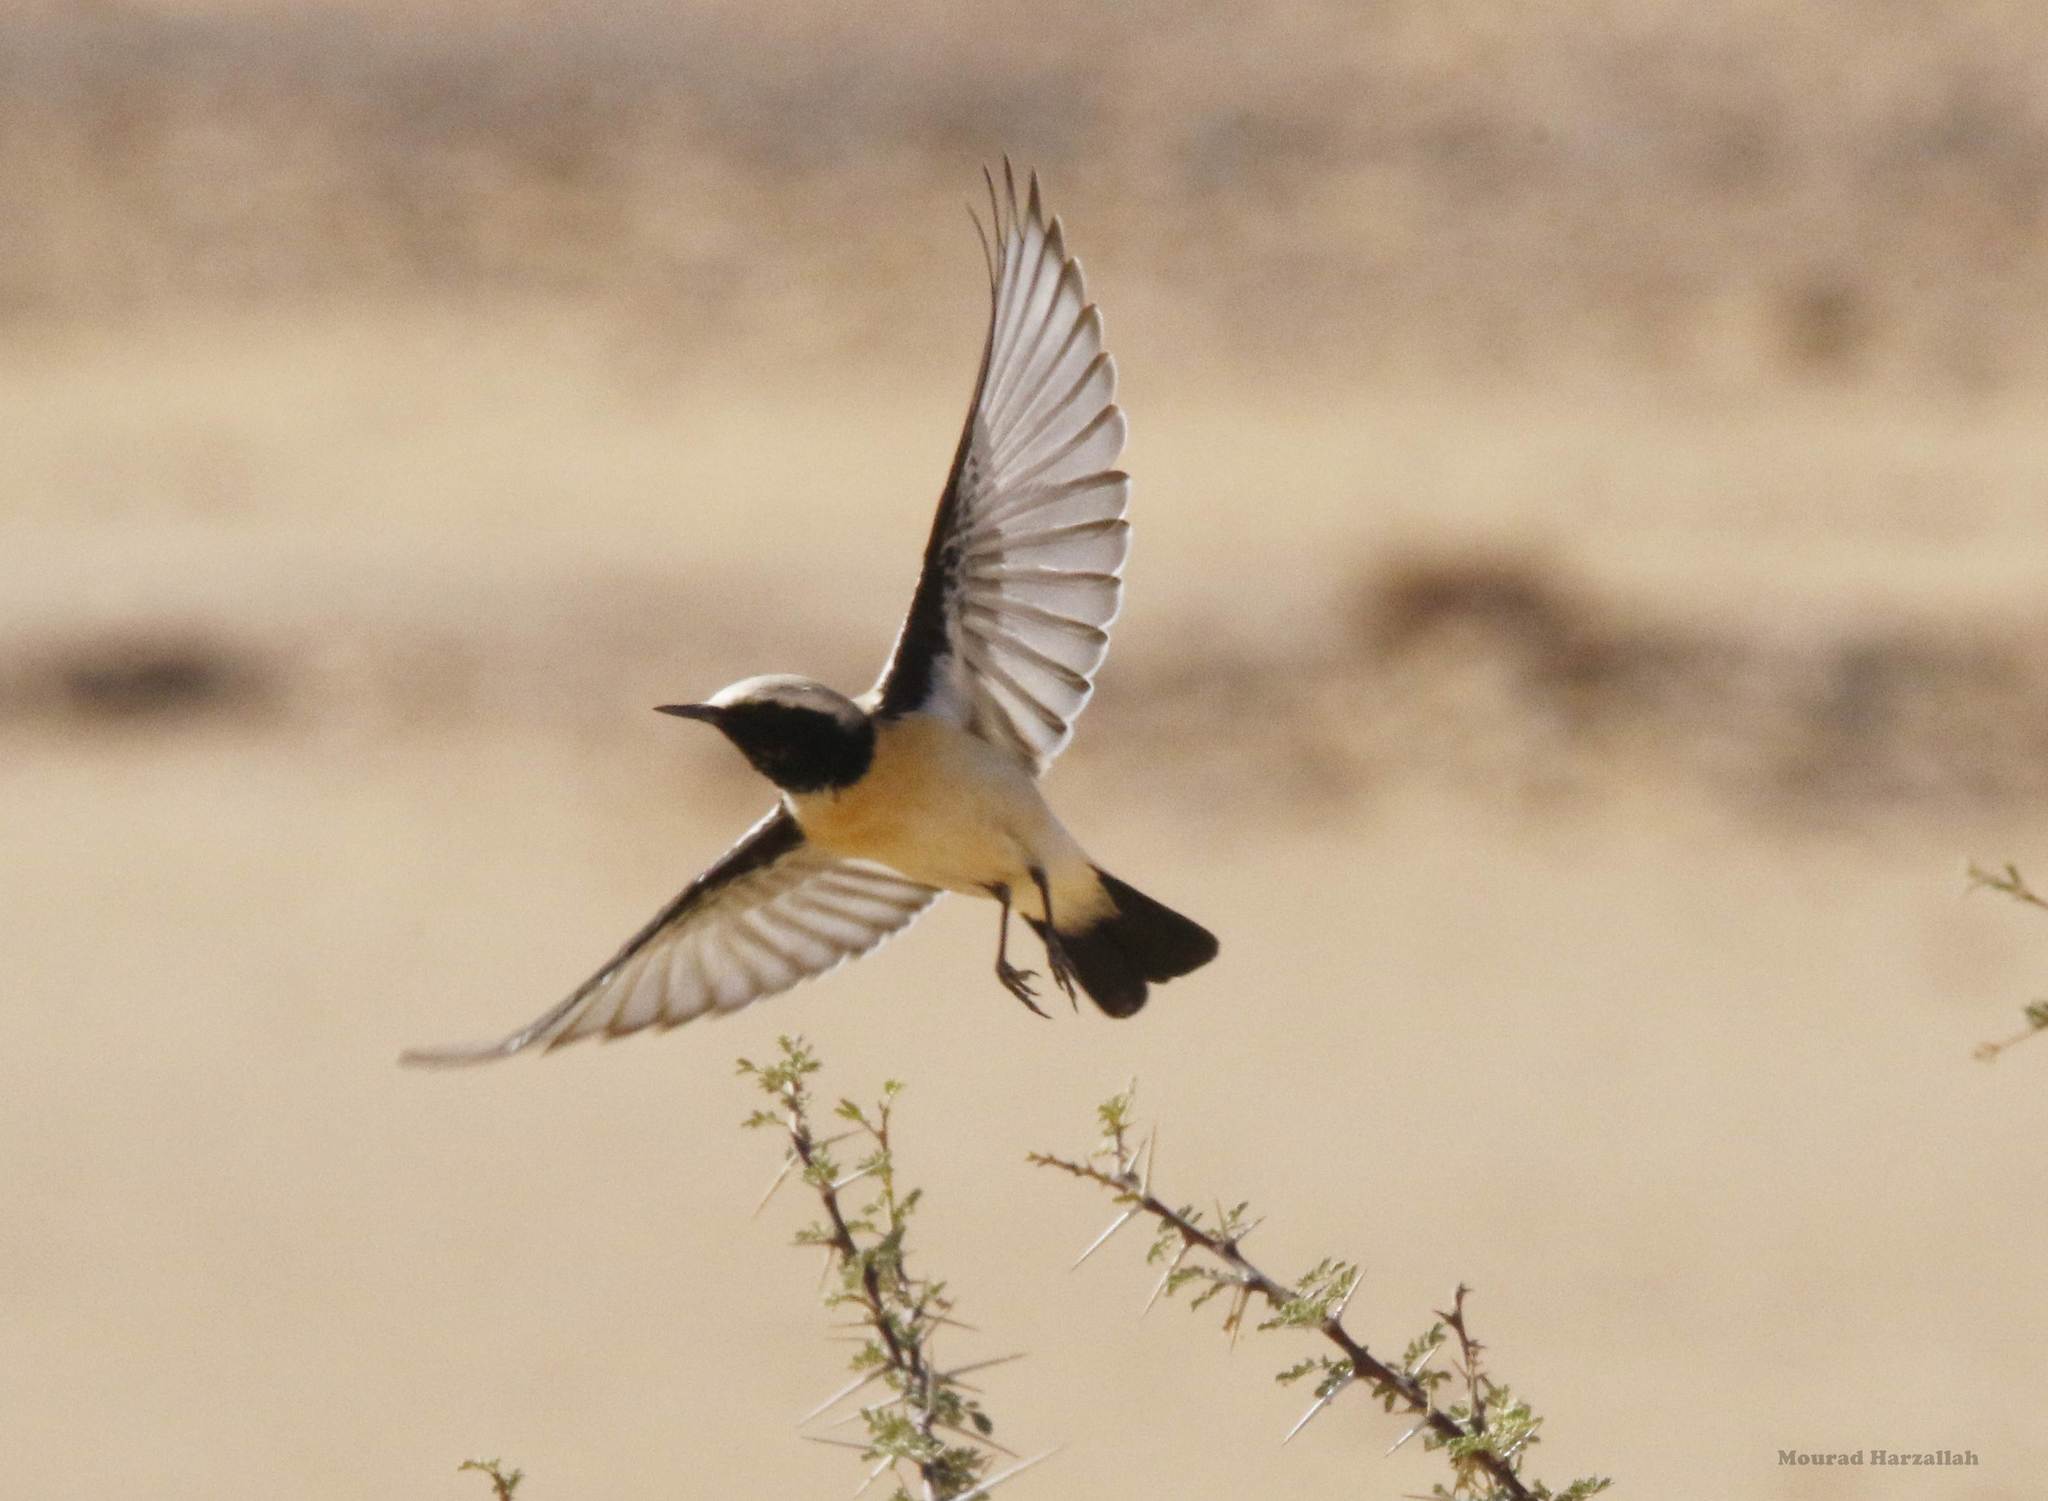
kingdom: Animalia
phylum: Chordata
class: Aves
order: Passeriformes
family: Muscicapidae
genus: Oenanthe
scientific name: Oenanthe deserti
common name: Desert wheatear
